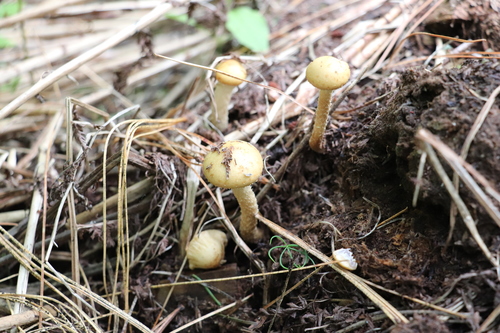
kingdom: Fungi
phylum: Basidiomycota
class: Agaricomycetes
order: Agaricales
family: Strophariaceae
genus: Leratiomyces
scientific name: Leratiomyces magnivelaris
